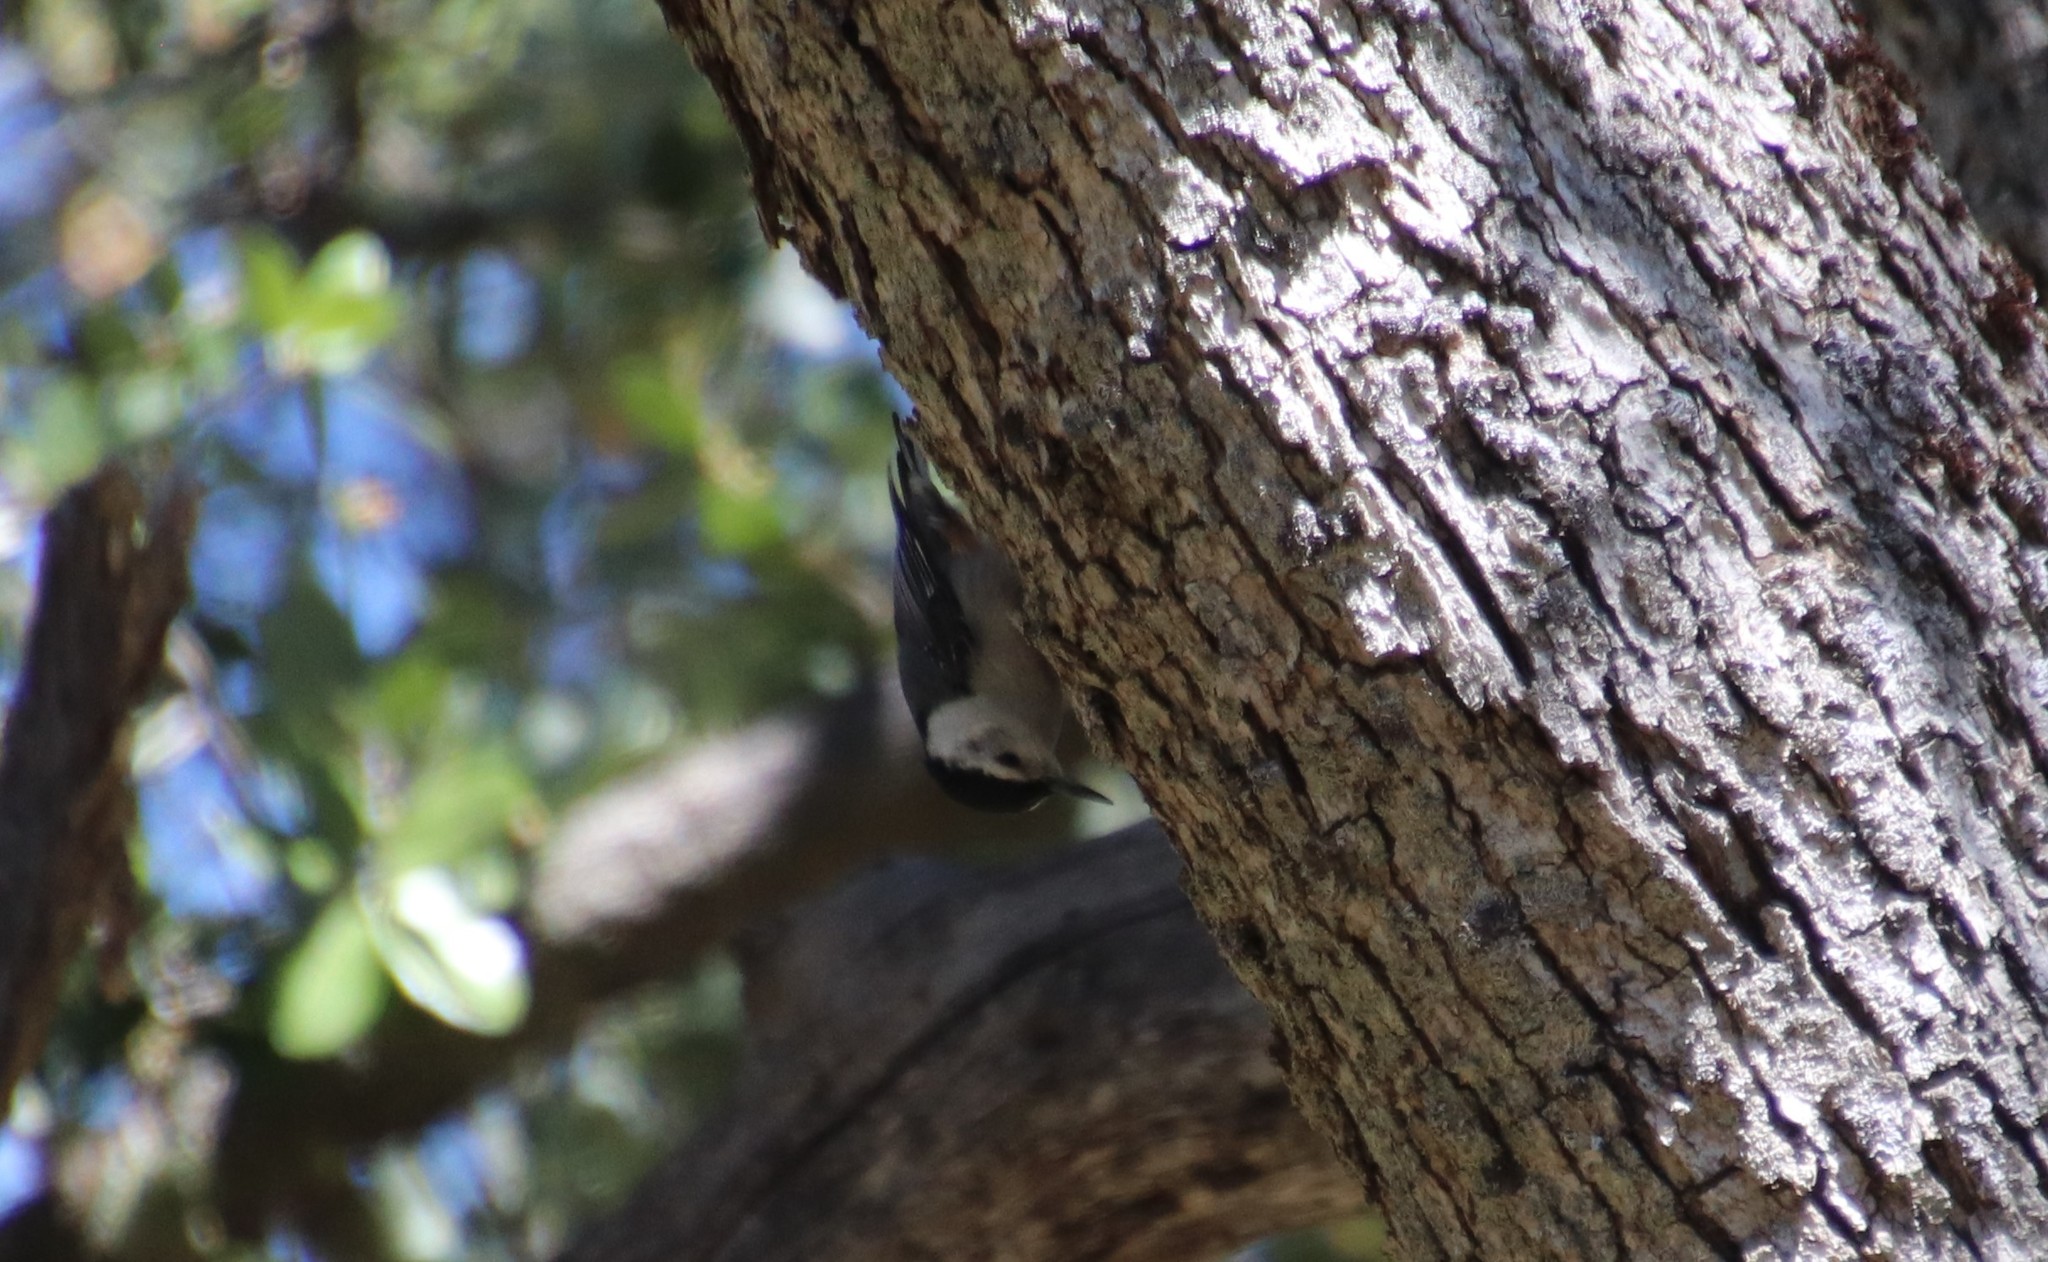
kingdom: Animalia
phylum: Chordata
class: Aves
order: Passeriformes
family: Sittidae
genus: Sitta
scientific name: Sitta carolinensis
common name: White-breasted nuthatch
